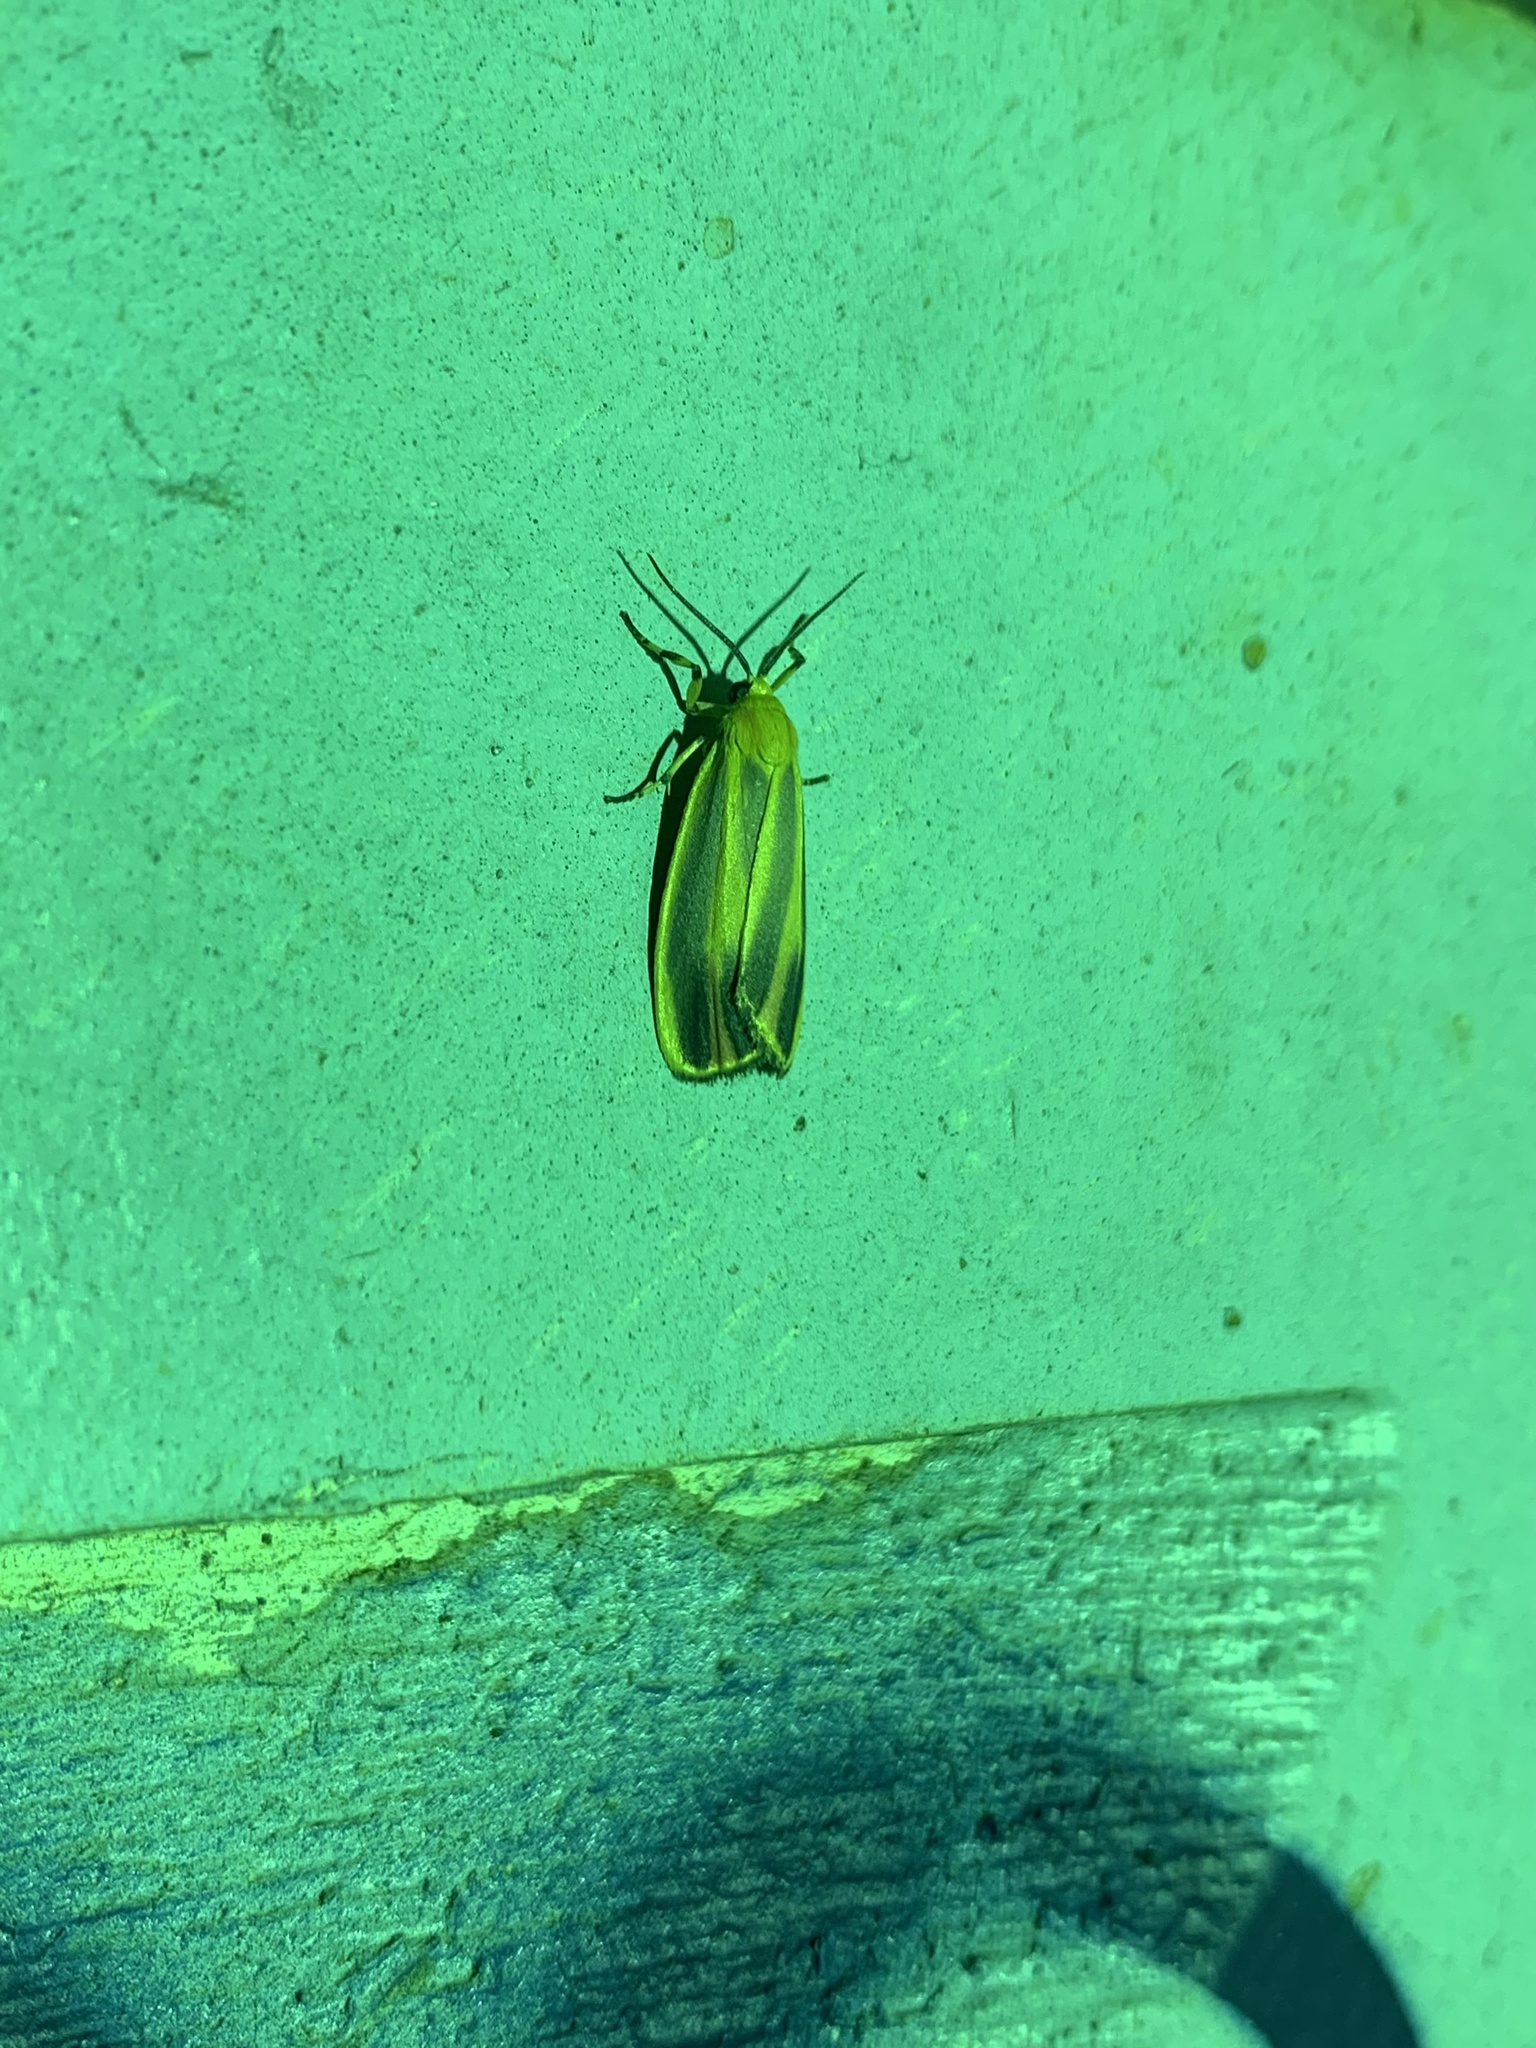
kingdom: Animalia
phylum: Arthropoda
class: Insecta
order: Lepidoptera
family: Erebidae
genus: Hypoprepia
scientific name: Hypoprepia fucosa
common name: Painted lichen moth
